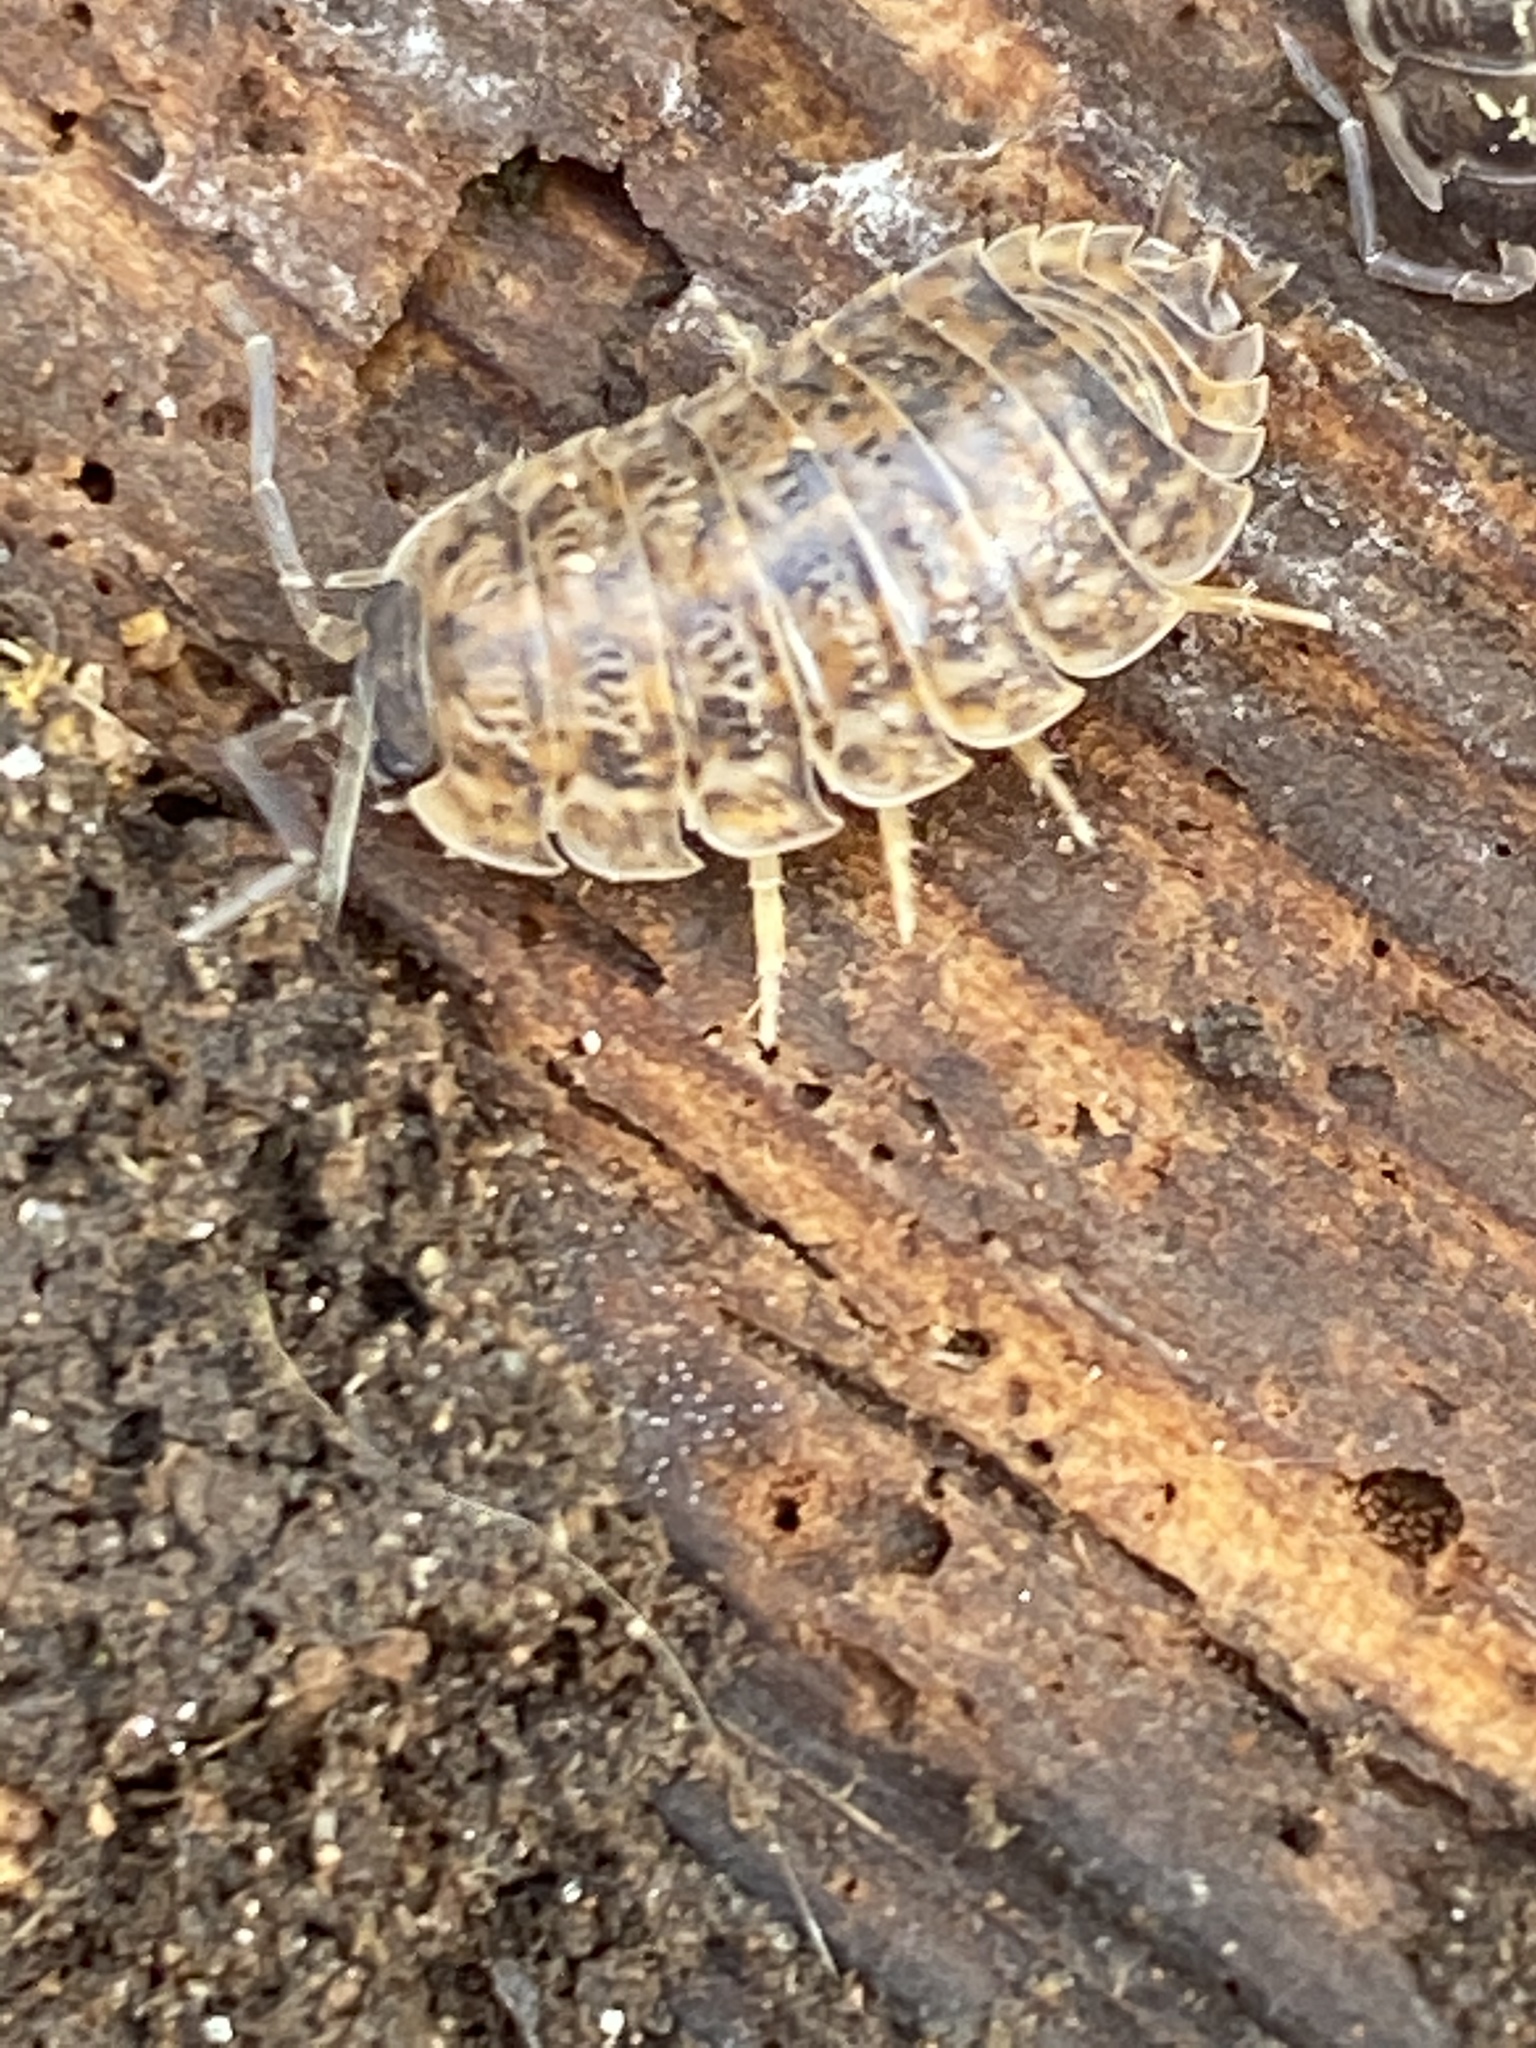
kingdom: Animalia
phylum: Arthropoda
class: Malacostraca
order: Isopoda
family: Trachelipodidae
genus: Trachelipus
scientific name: Trachelipus rathkii
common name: Isopod
